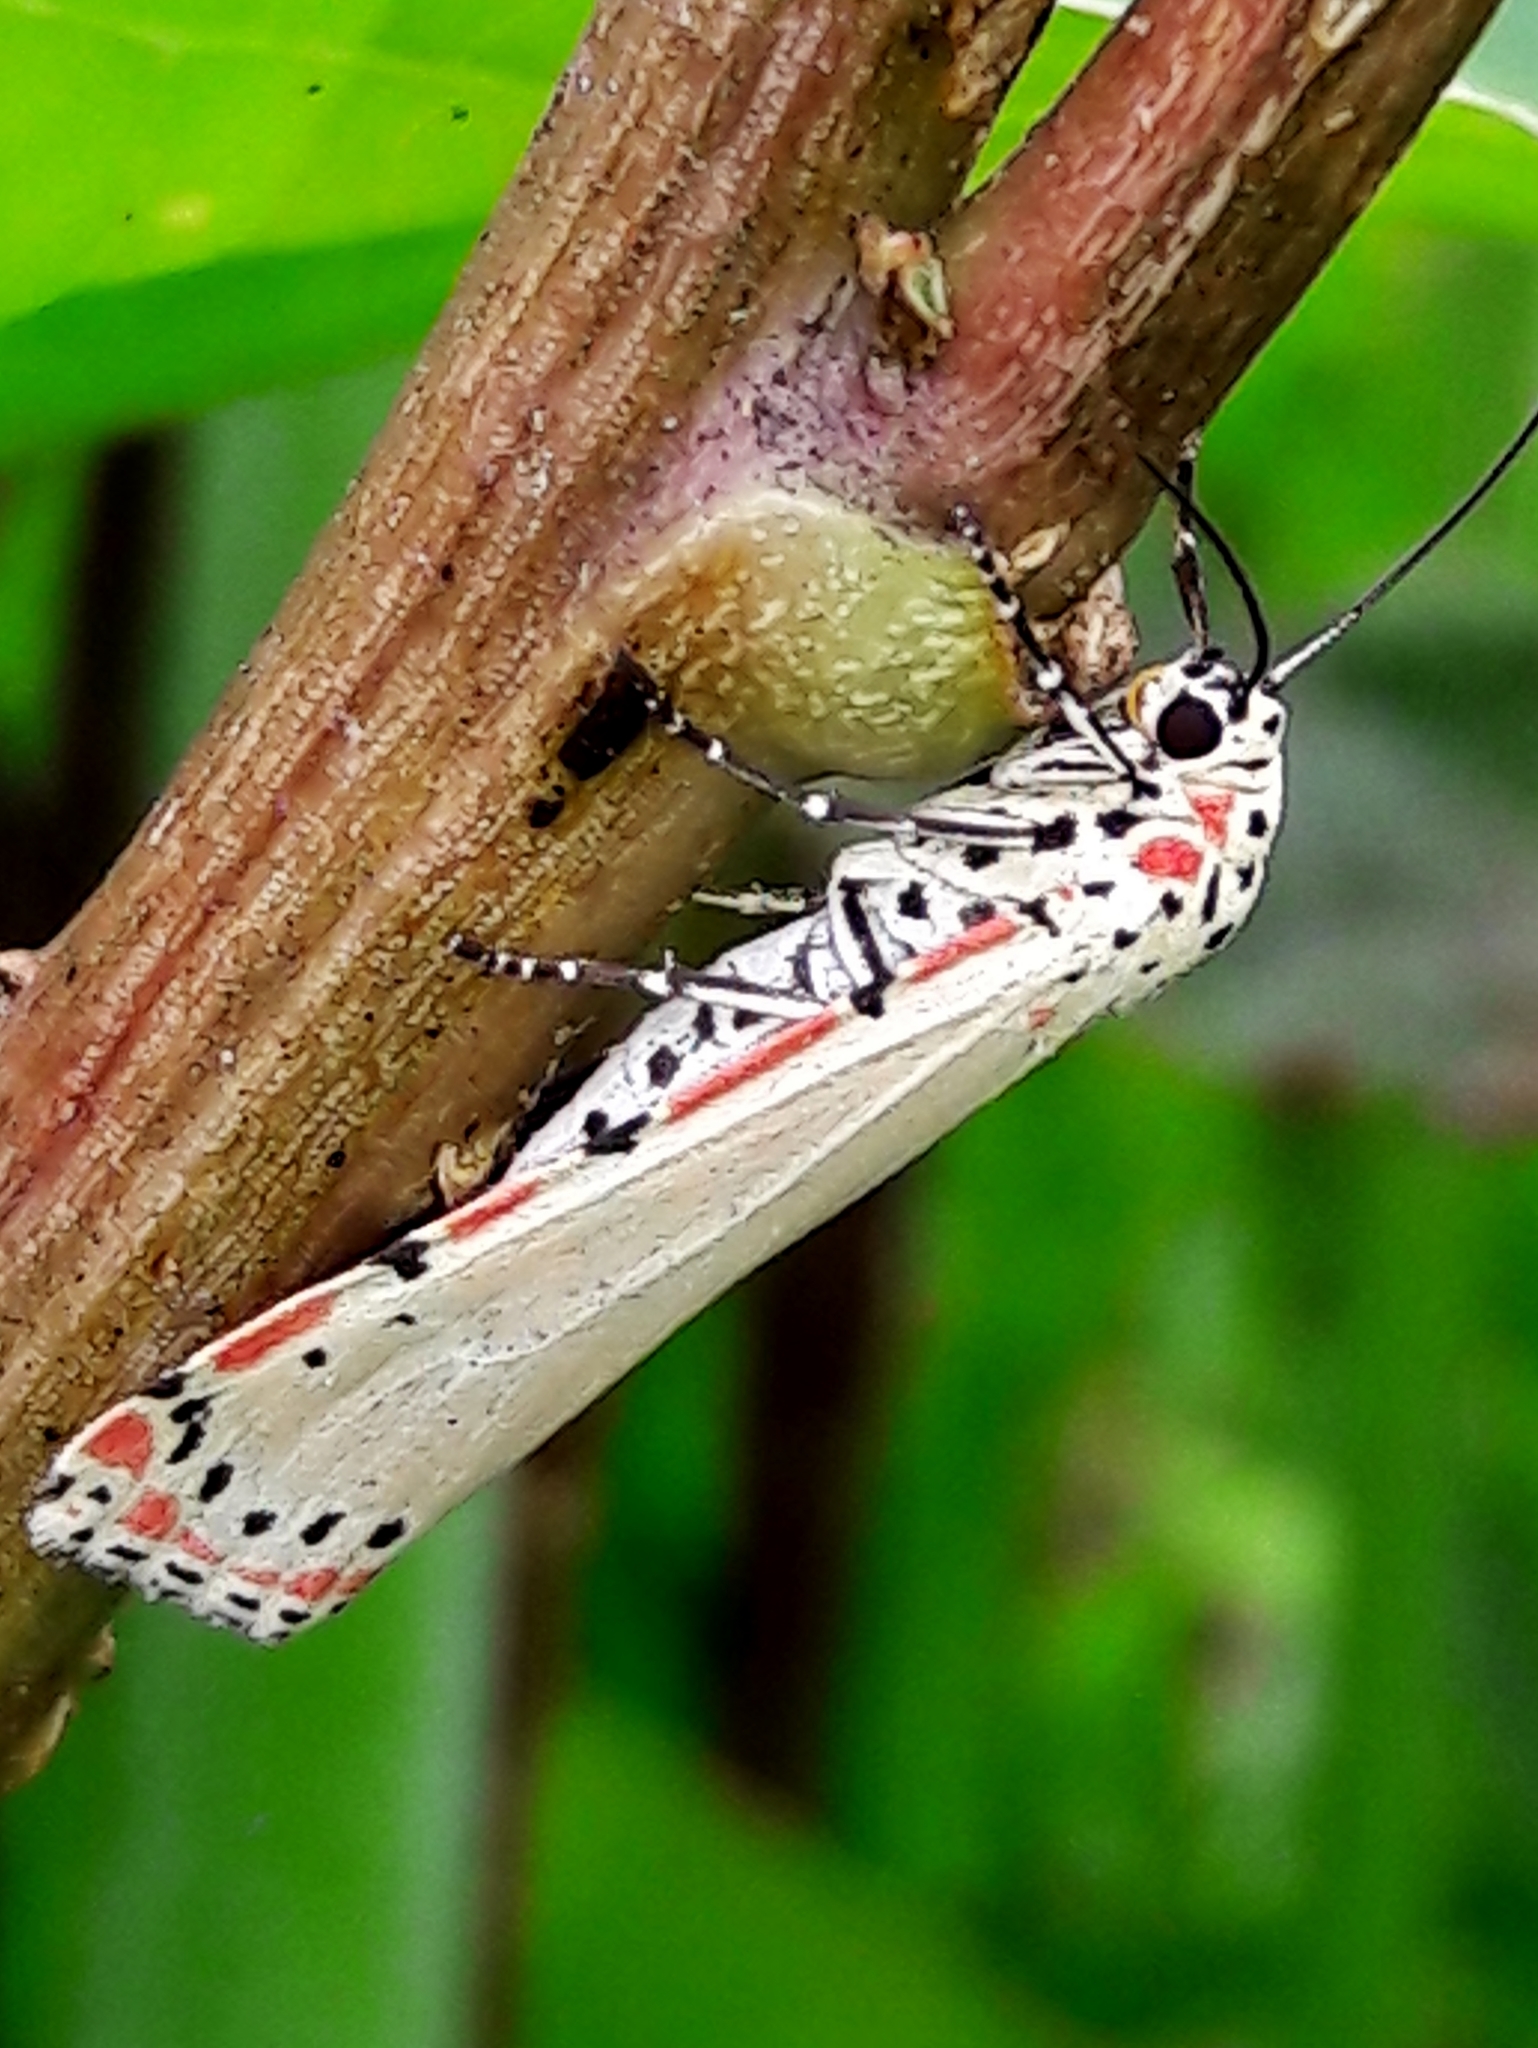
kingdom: Animalia
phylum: Arthropoda
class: Insecta
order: Lepidoptera
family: Erebidae
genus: Utetheisa
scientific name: Utetheisa ornatrix
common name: Beautiful utetheisa
